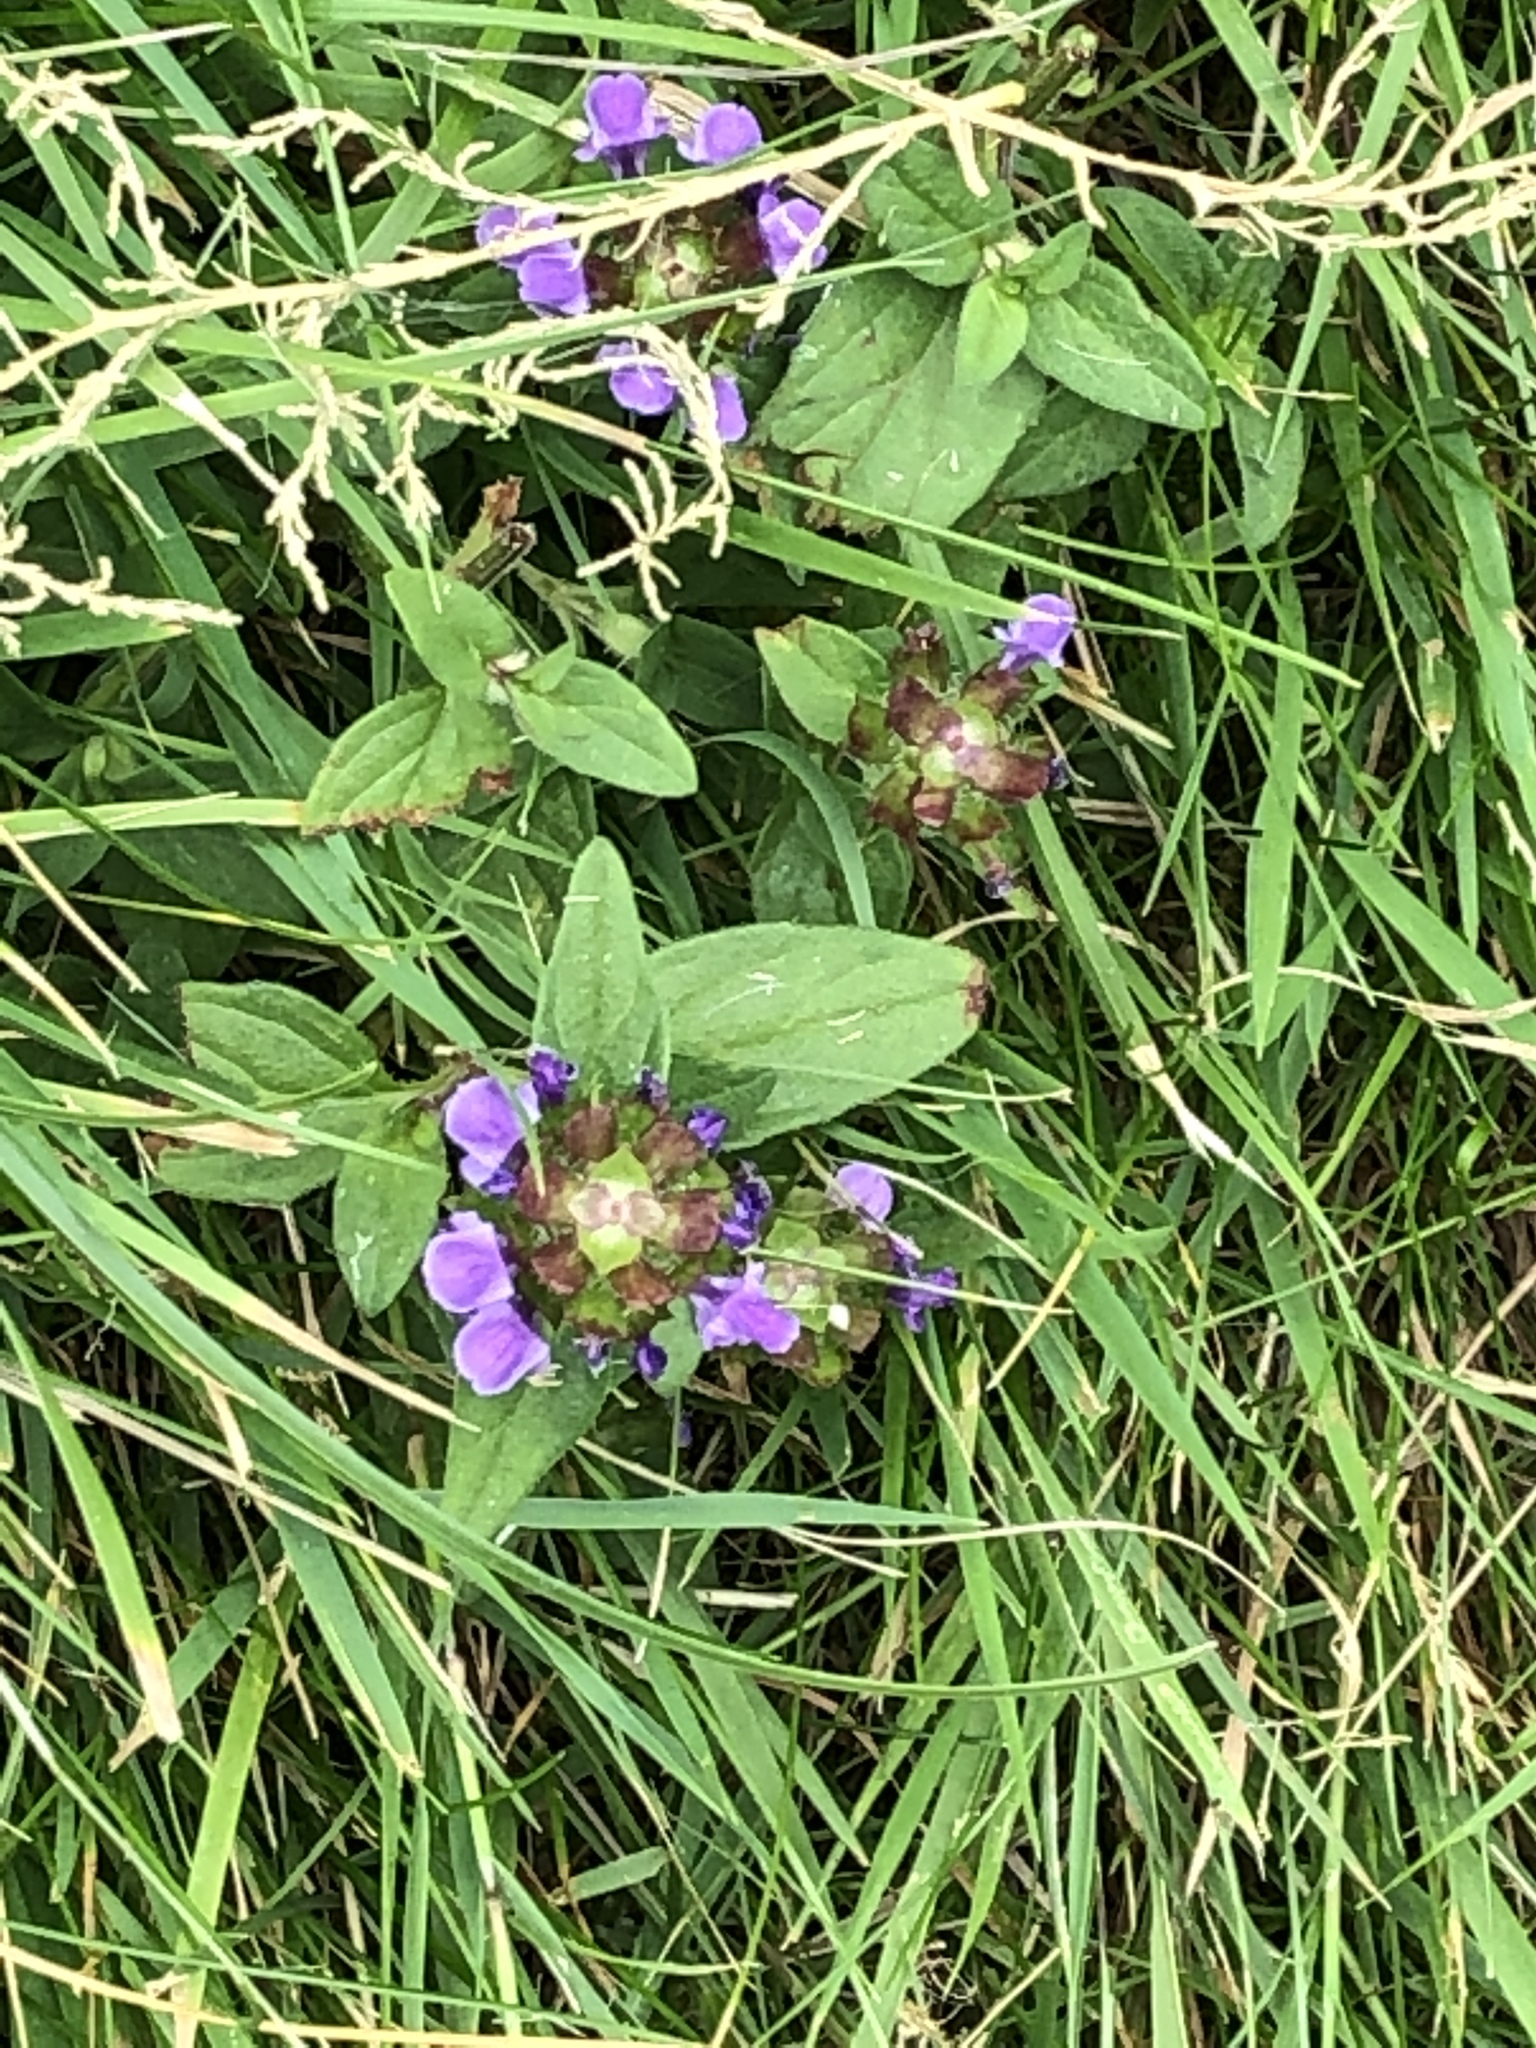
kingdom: Plantae
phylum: Tracheophyta
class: Magnoliopsida
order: Lamiales
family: Lamiaceae
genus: Prunella
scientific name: Prunella vulgaris
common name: Heal-all
